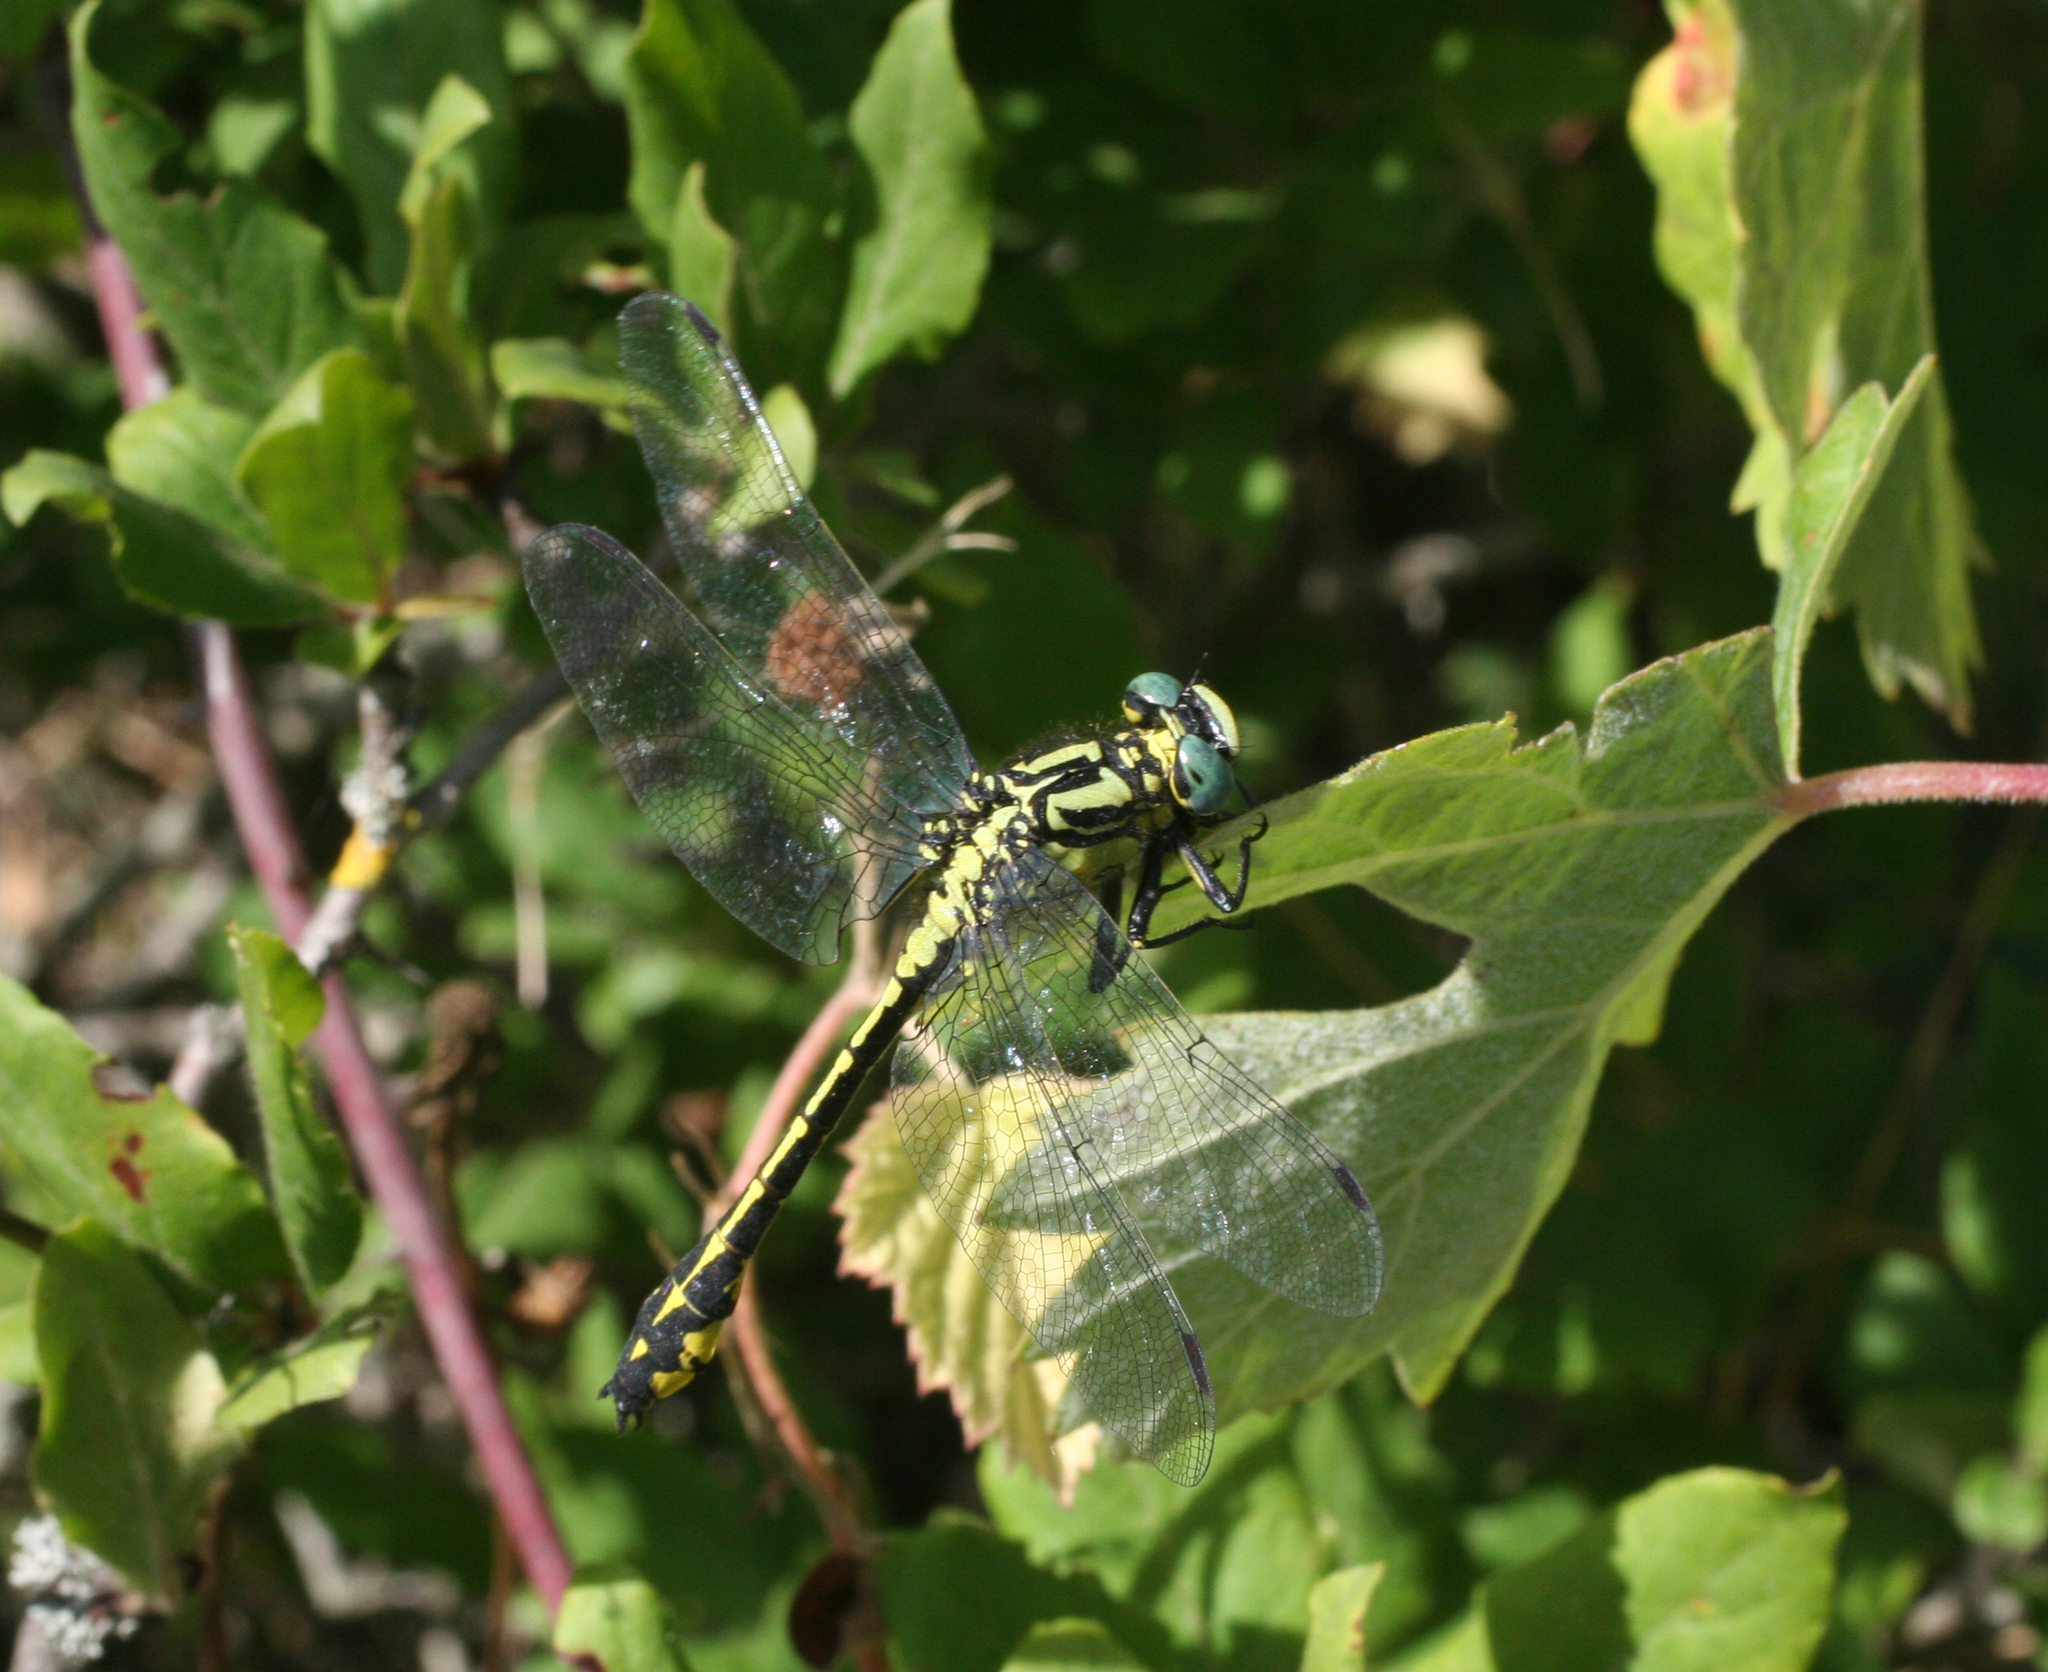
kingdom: Animalia
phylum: Arthropoda
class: Insecta
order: Odonata
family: Gomphidae
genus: Gomphus
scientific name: Gomphus schneiderii
